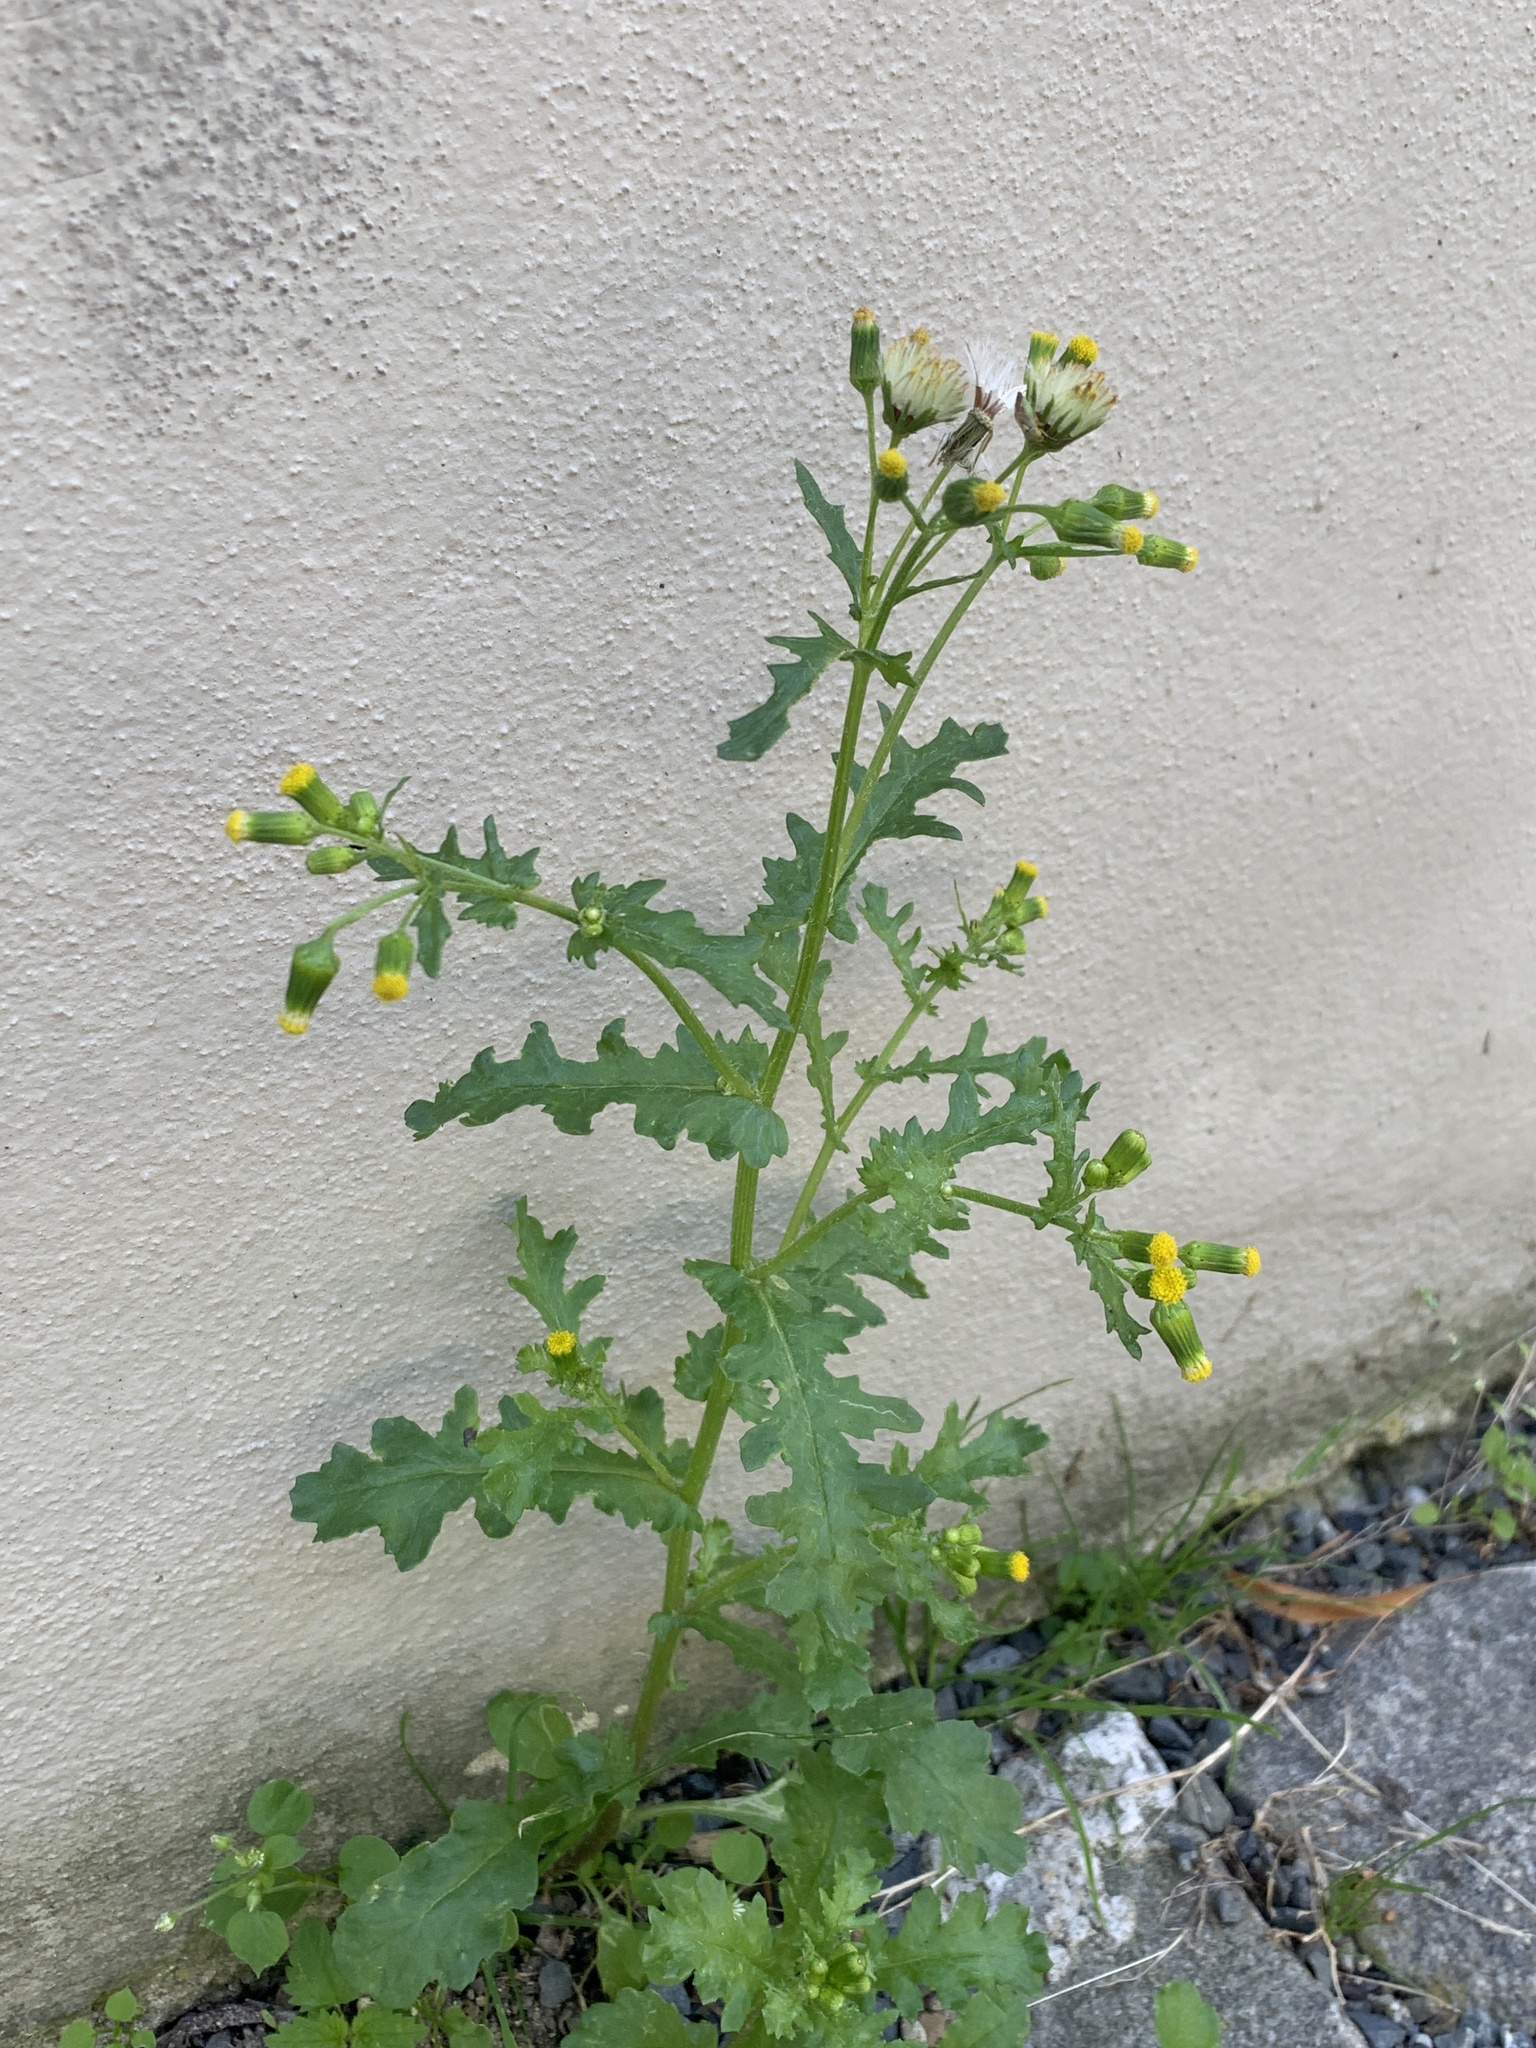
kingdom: Plantae
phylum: Tracheophyta
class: Magnoliopsida
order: Asterales
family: Asteraceae
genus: Senecio
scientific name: Senecio vulgaris
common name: Old-man-in-the-spring
